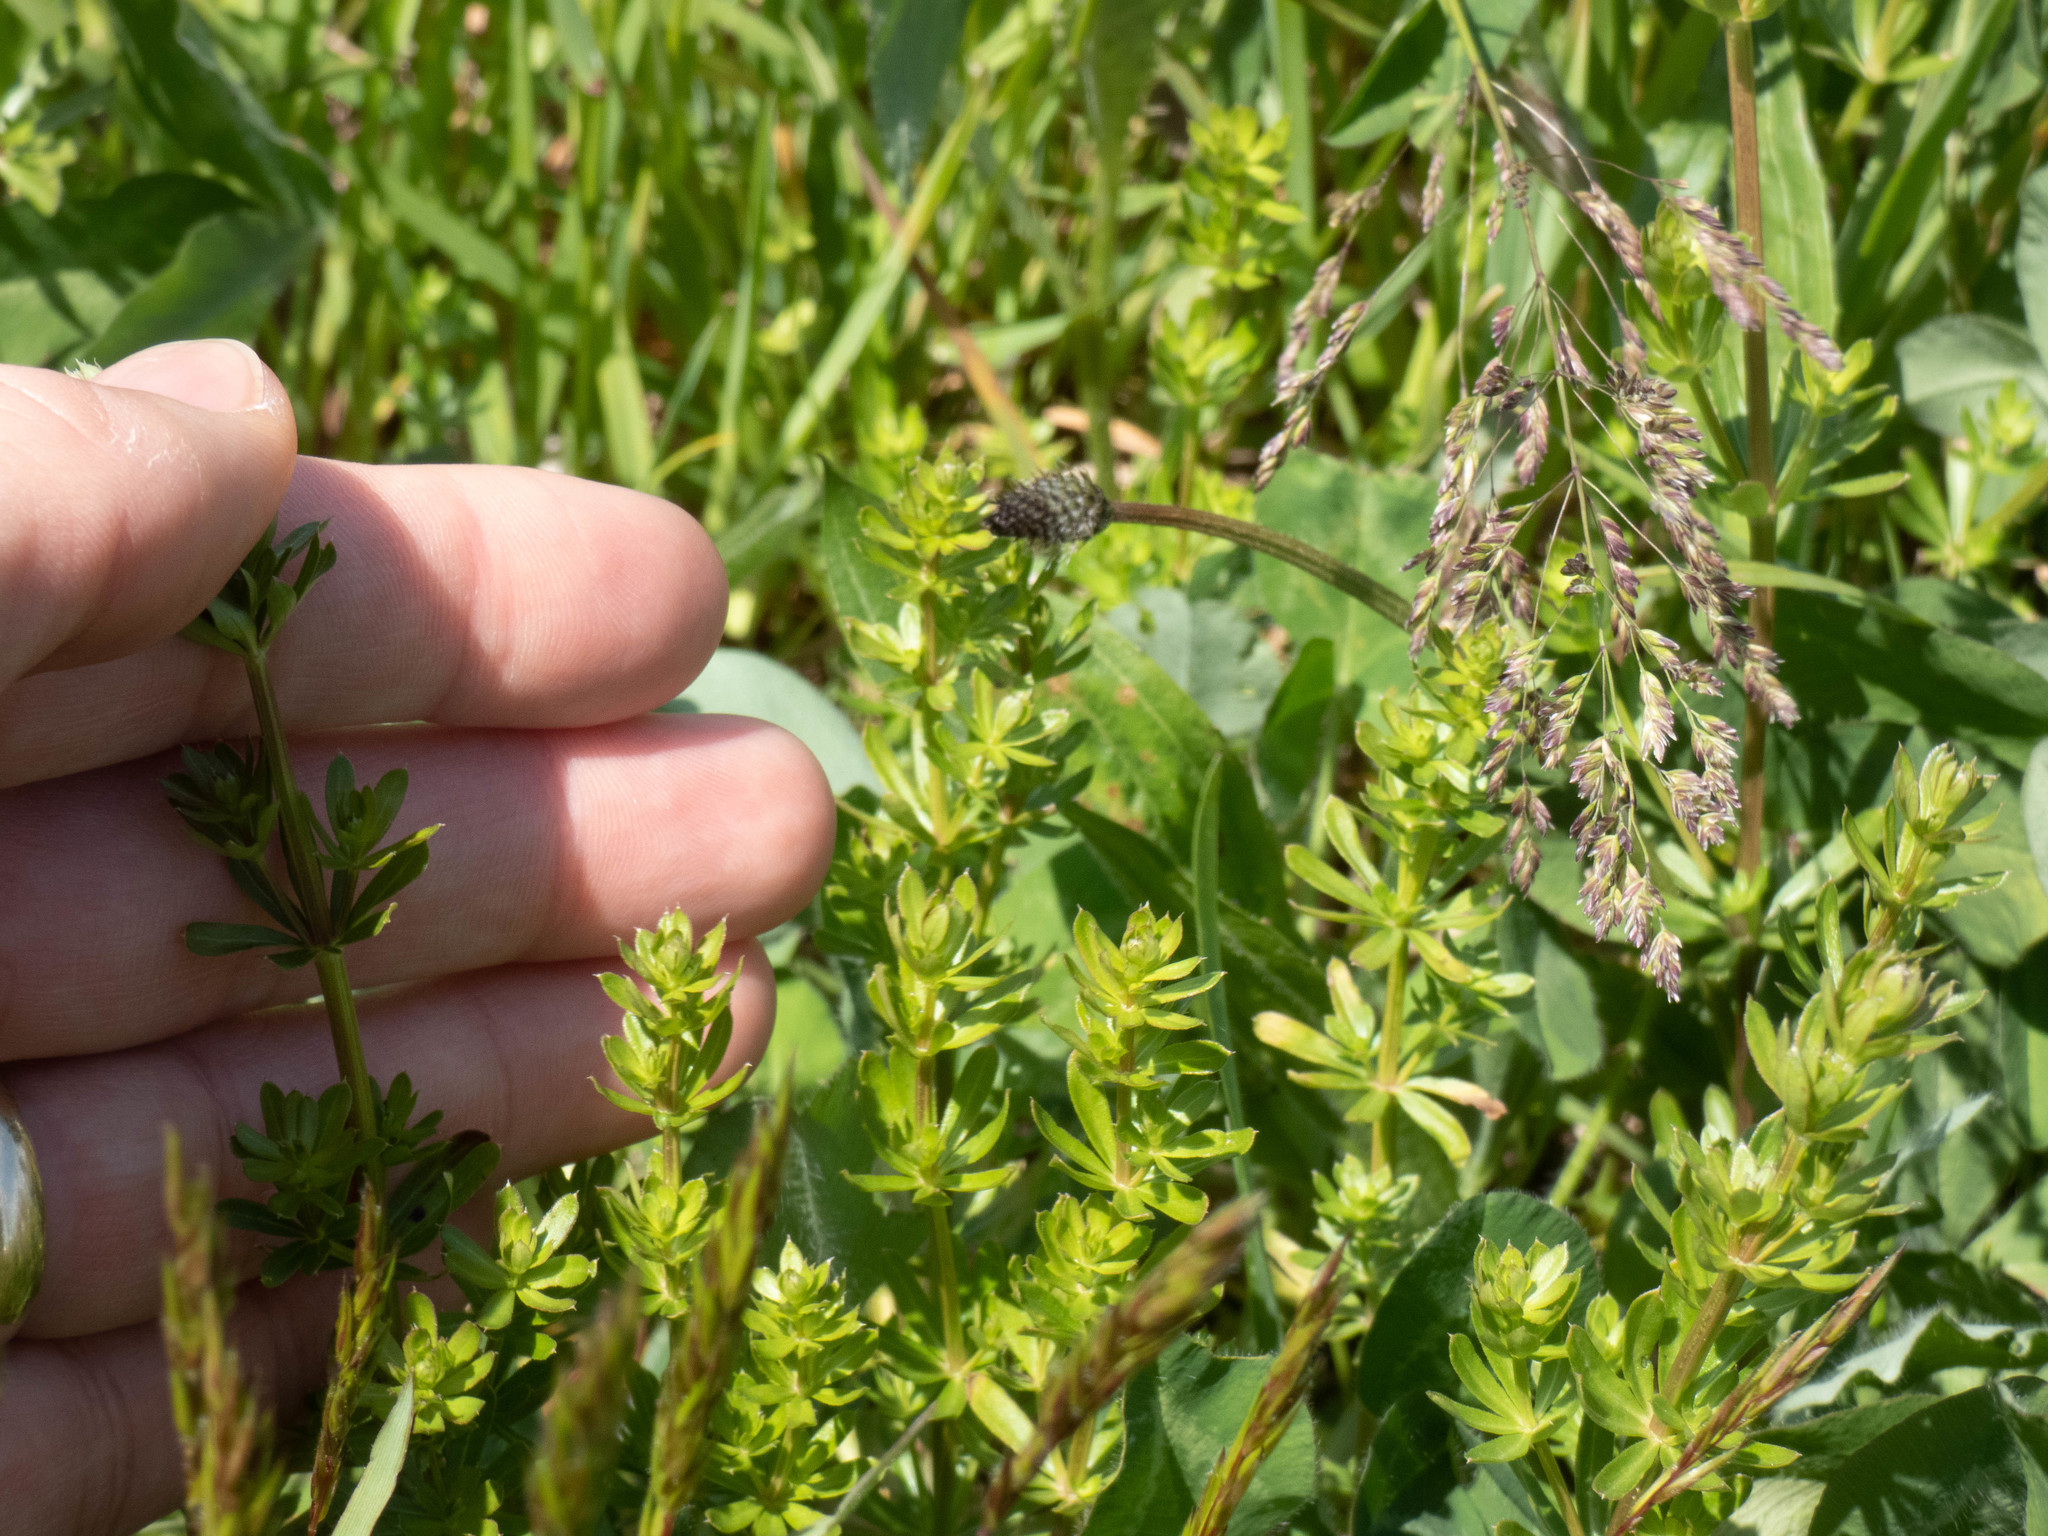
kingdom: Plantae
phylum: Tracheophyta
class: Magnoliopsida
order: Gentianales
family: Rubiaceae
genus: Galium
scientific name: Galium mollugo
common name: Hedge bedstraw
